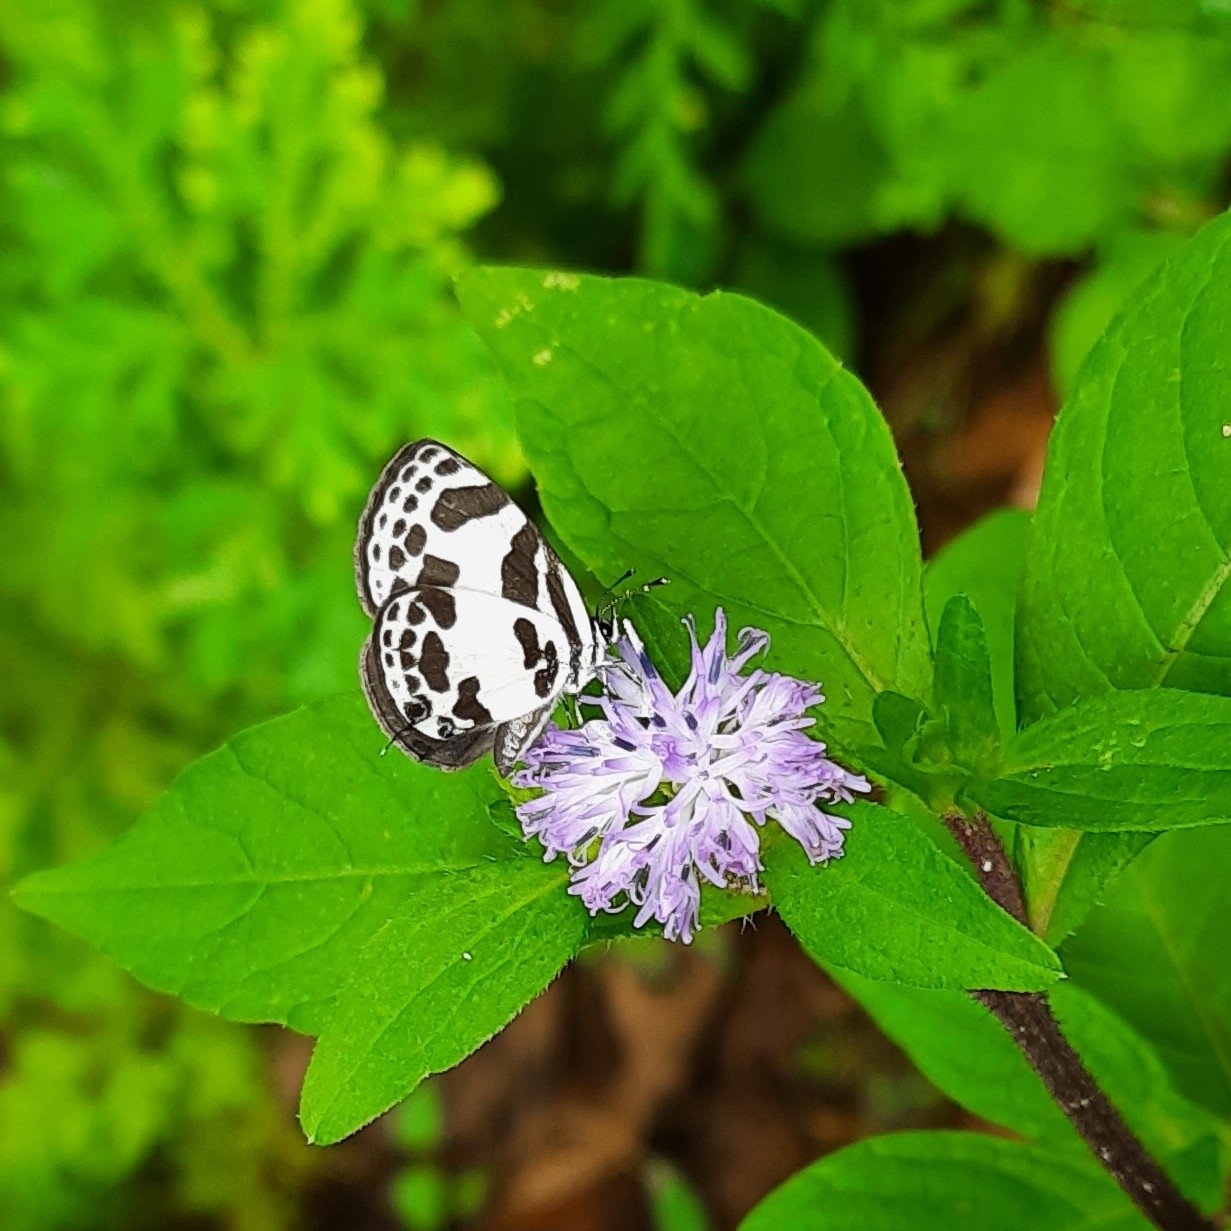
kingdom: Animalia
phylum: Arthropoda
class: Insecta
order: Lepidoptera
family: Lycaenidae
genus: Discolampa
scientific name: Discolampa ethion
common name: Banded blue pierrot
